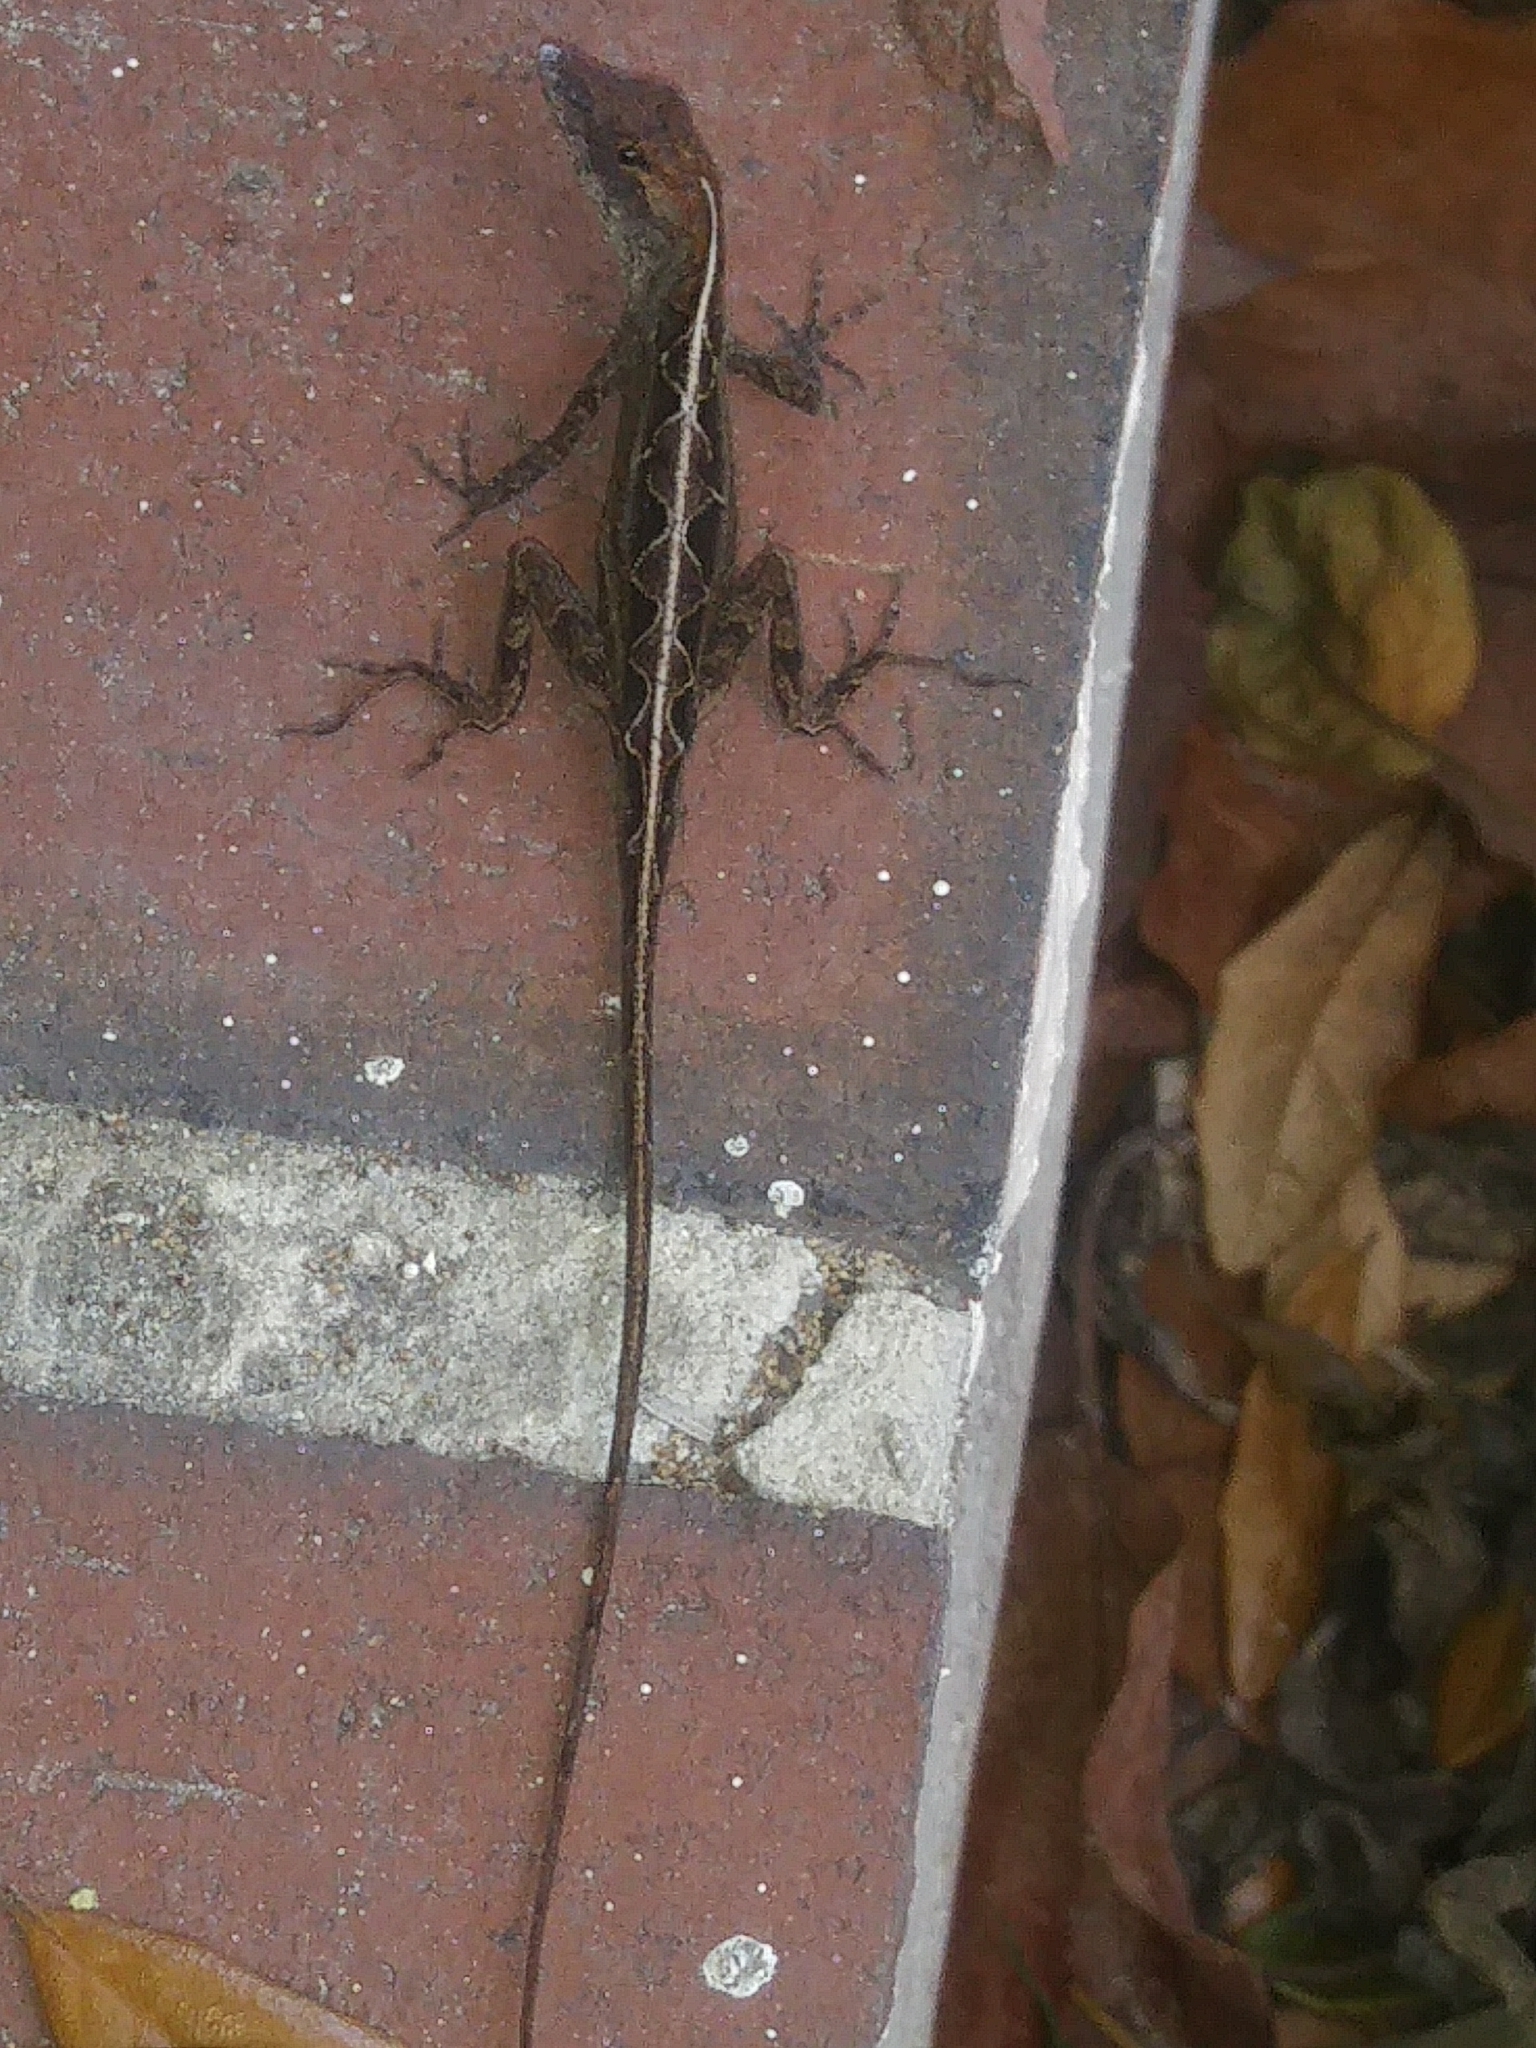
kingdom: Animalia
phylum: Chordata
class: Squamata
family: Dactyloidae
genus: Anolis
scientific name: Anolis sagrei
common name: Brown anole
